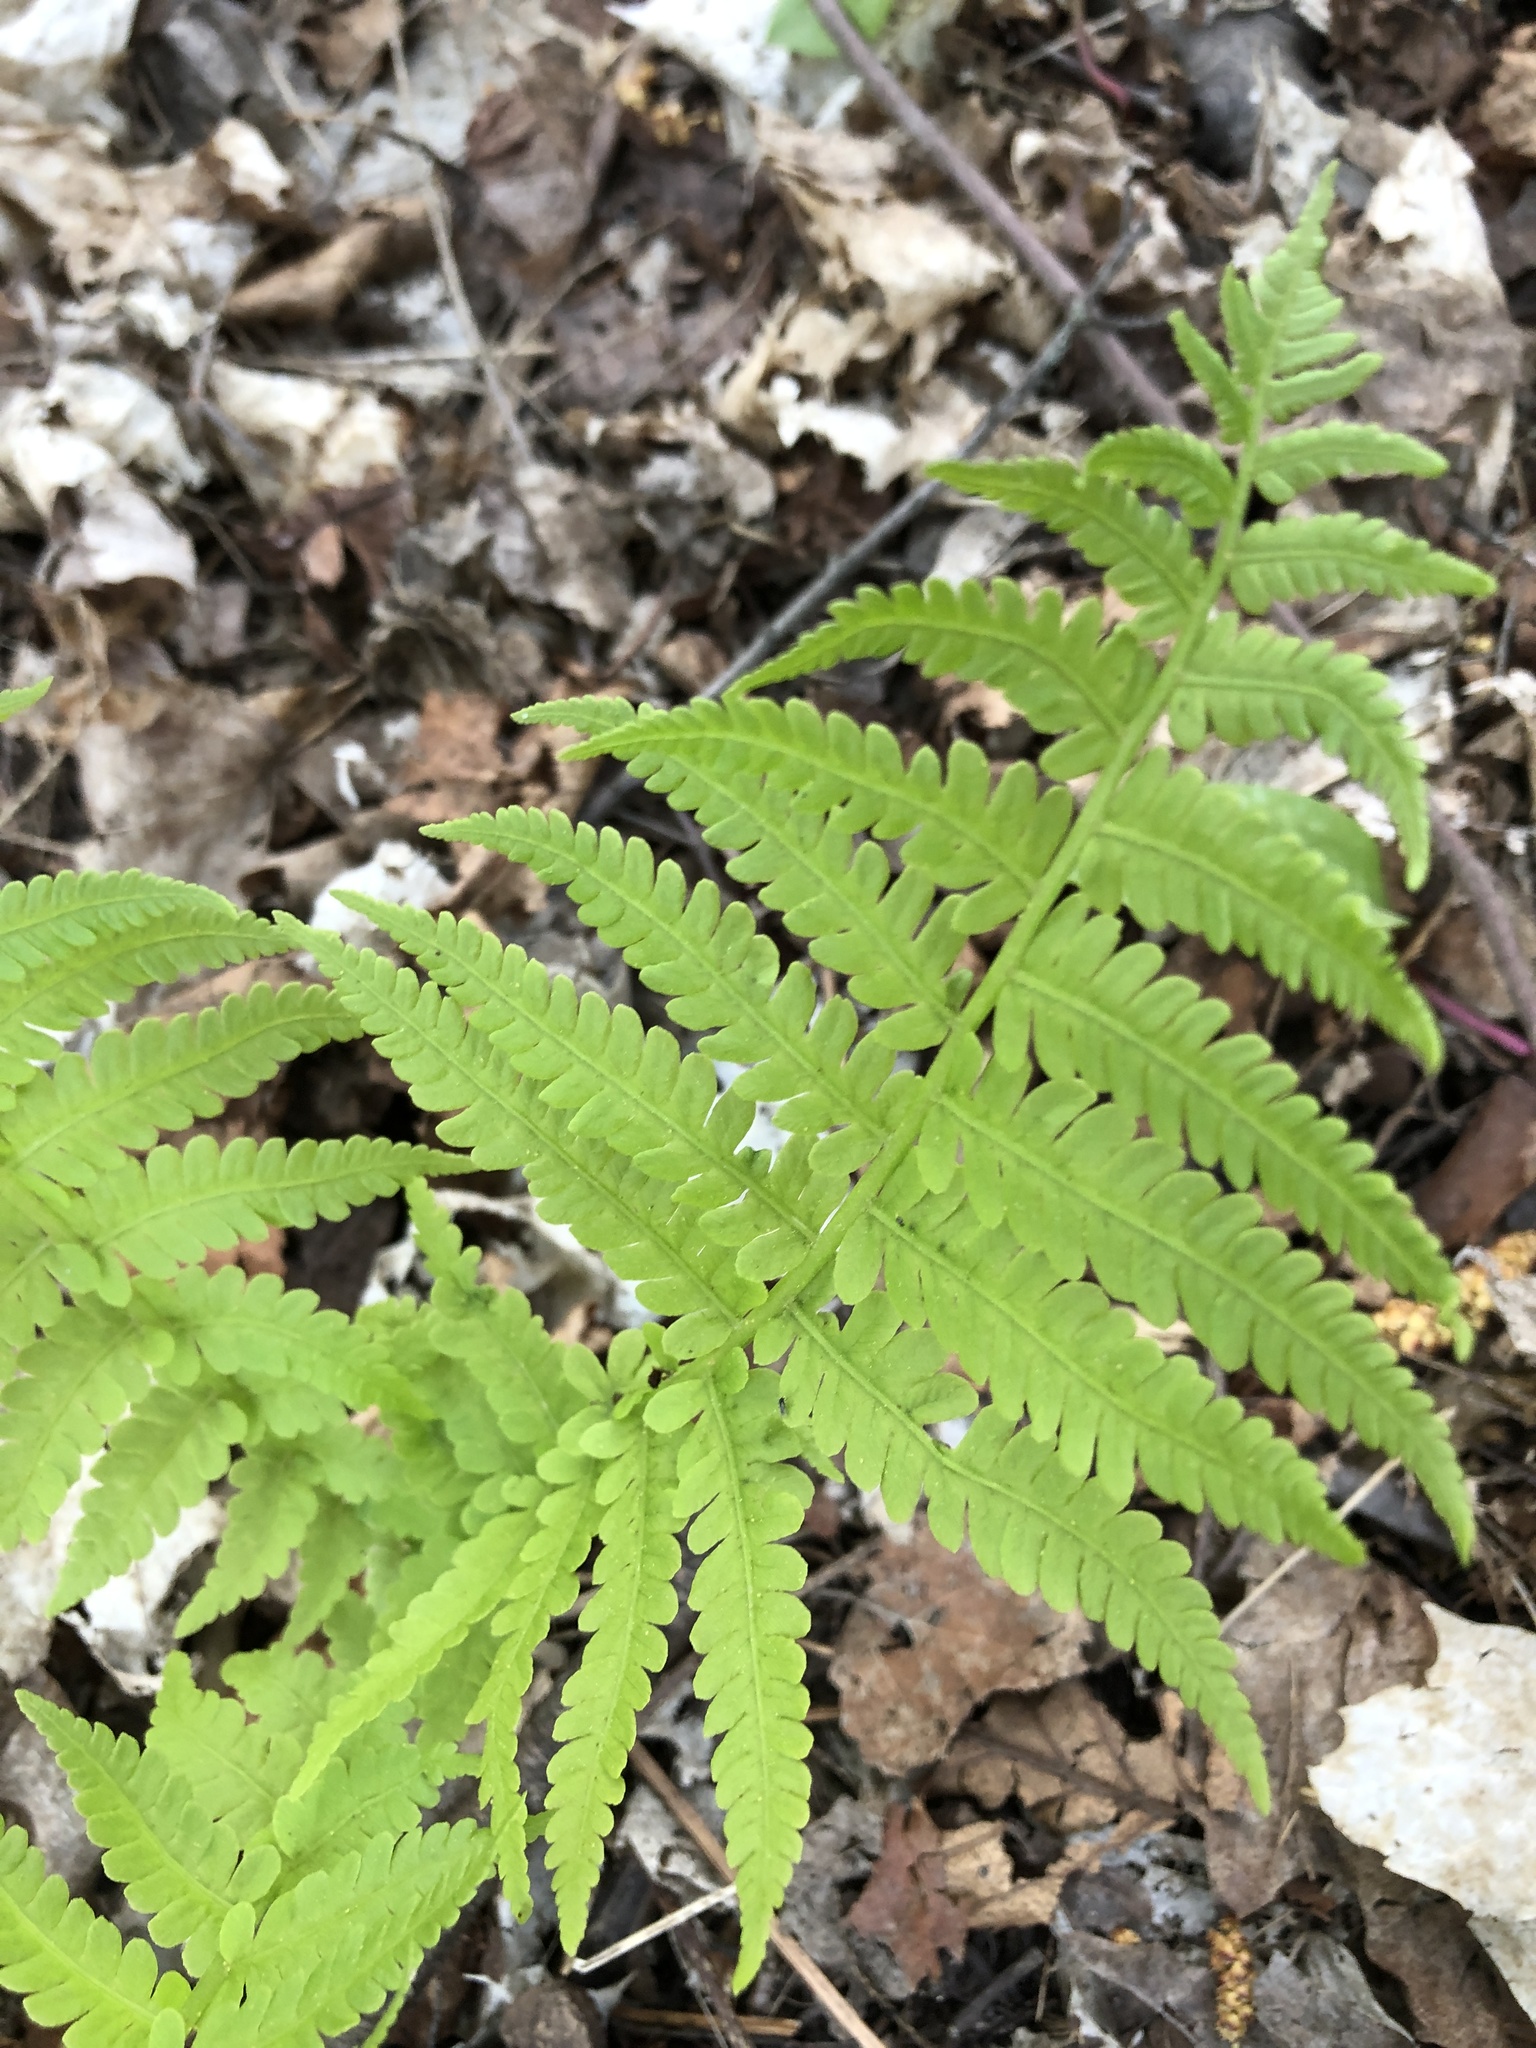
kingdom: Plantae
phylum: Tracheophyta
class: Polypodiopsida
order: Polypodiales
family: Onocleaceae
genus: Matteuccia
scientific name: Matteuccia struthiopteris
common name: Ostrich fern
